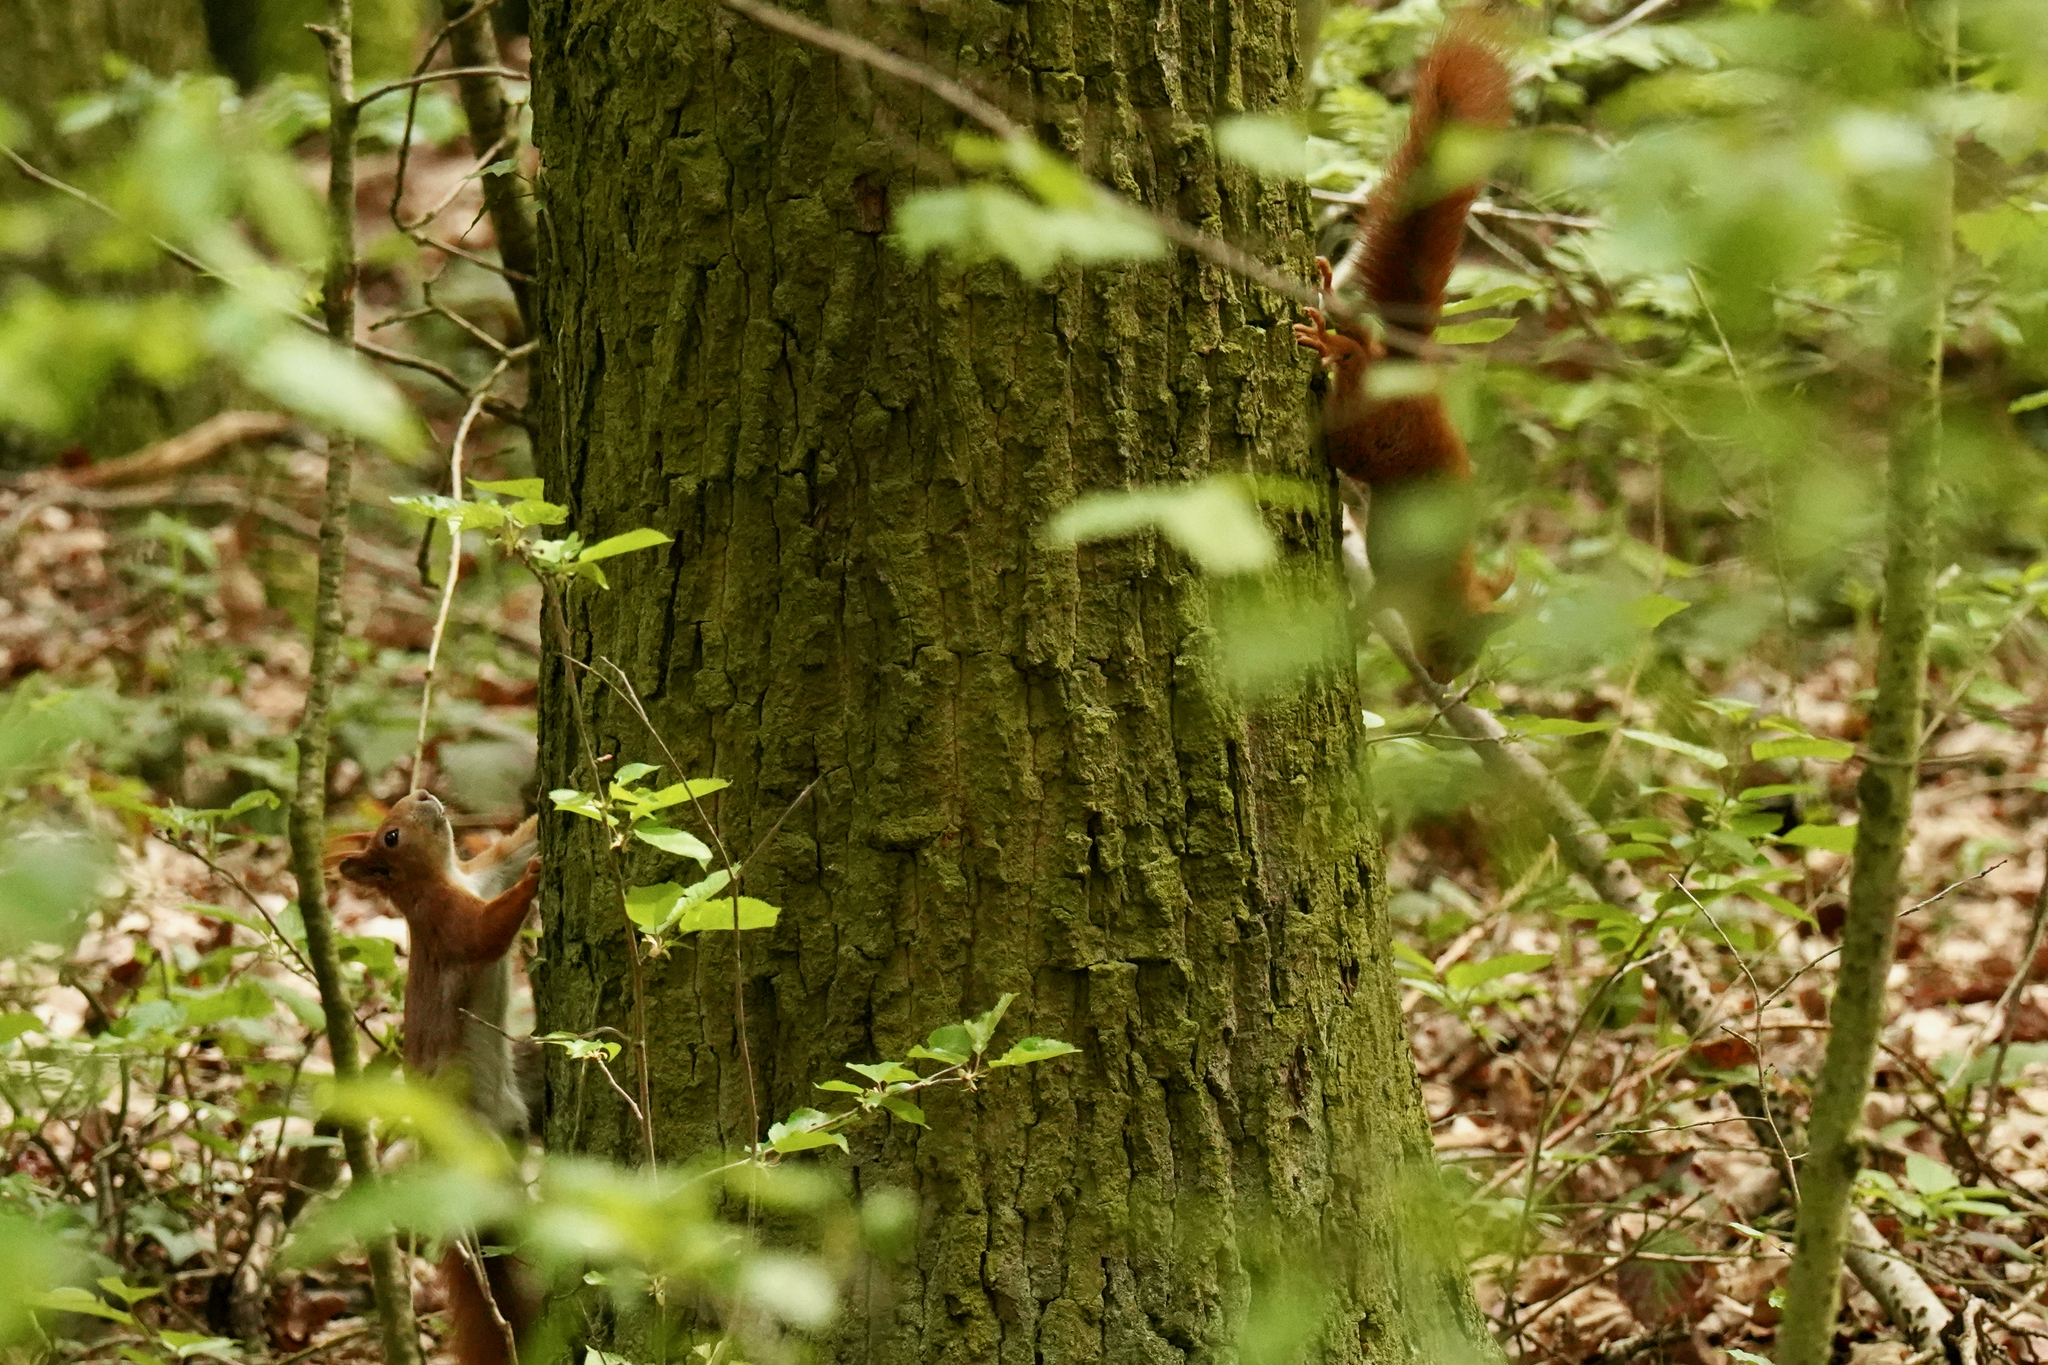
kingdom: Animalia
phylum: Chordata
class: Mammalia
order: Rodentia
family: Sciuridae
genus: Sciurus
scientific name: Sciurus vulgaris
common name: Eurasian red squirrel
